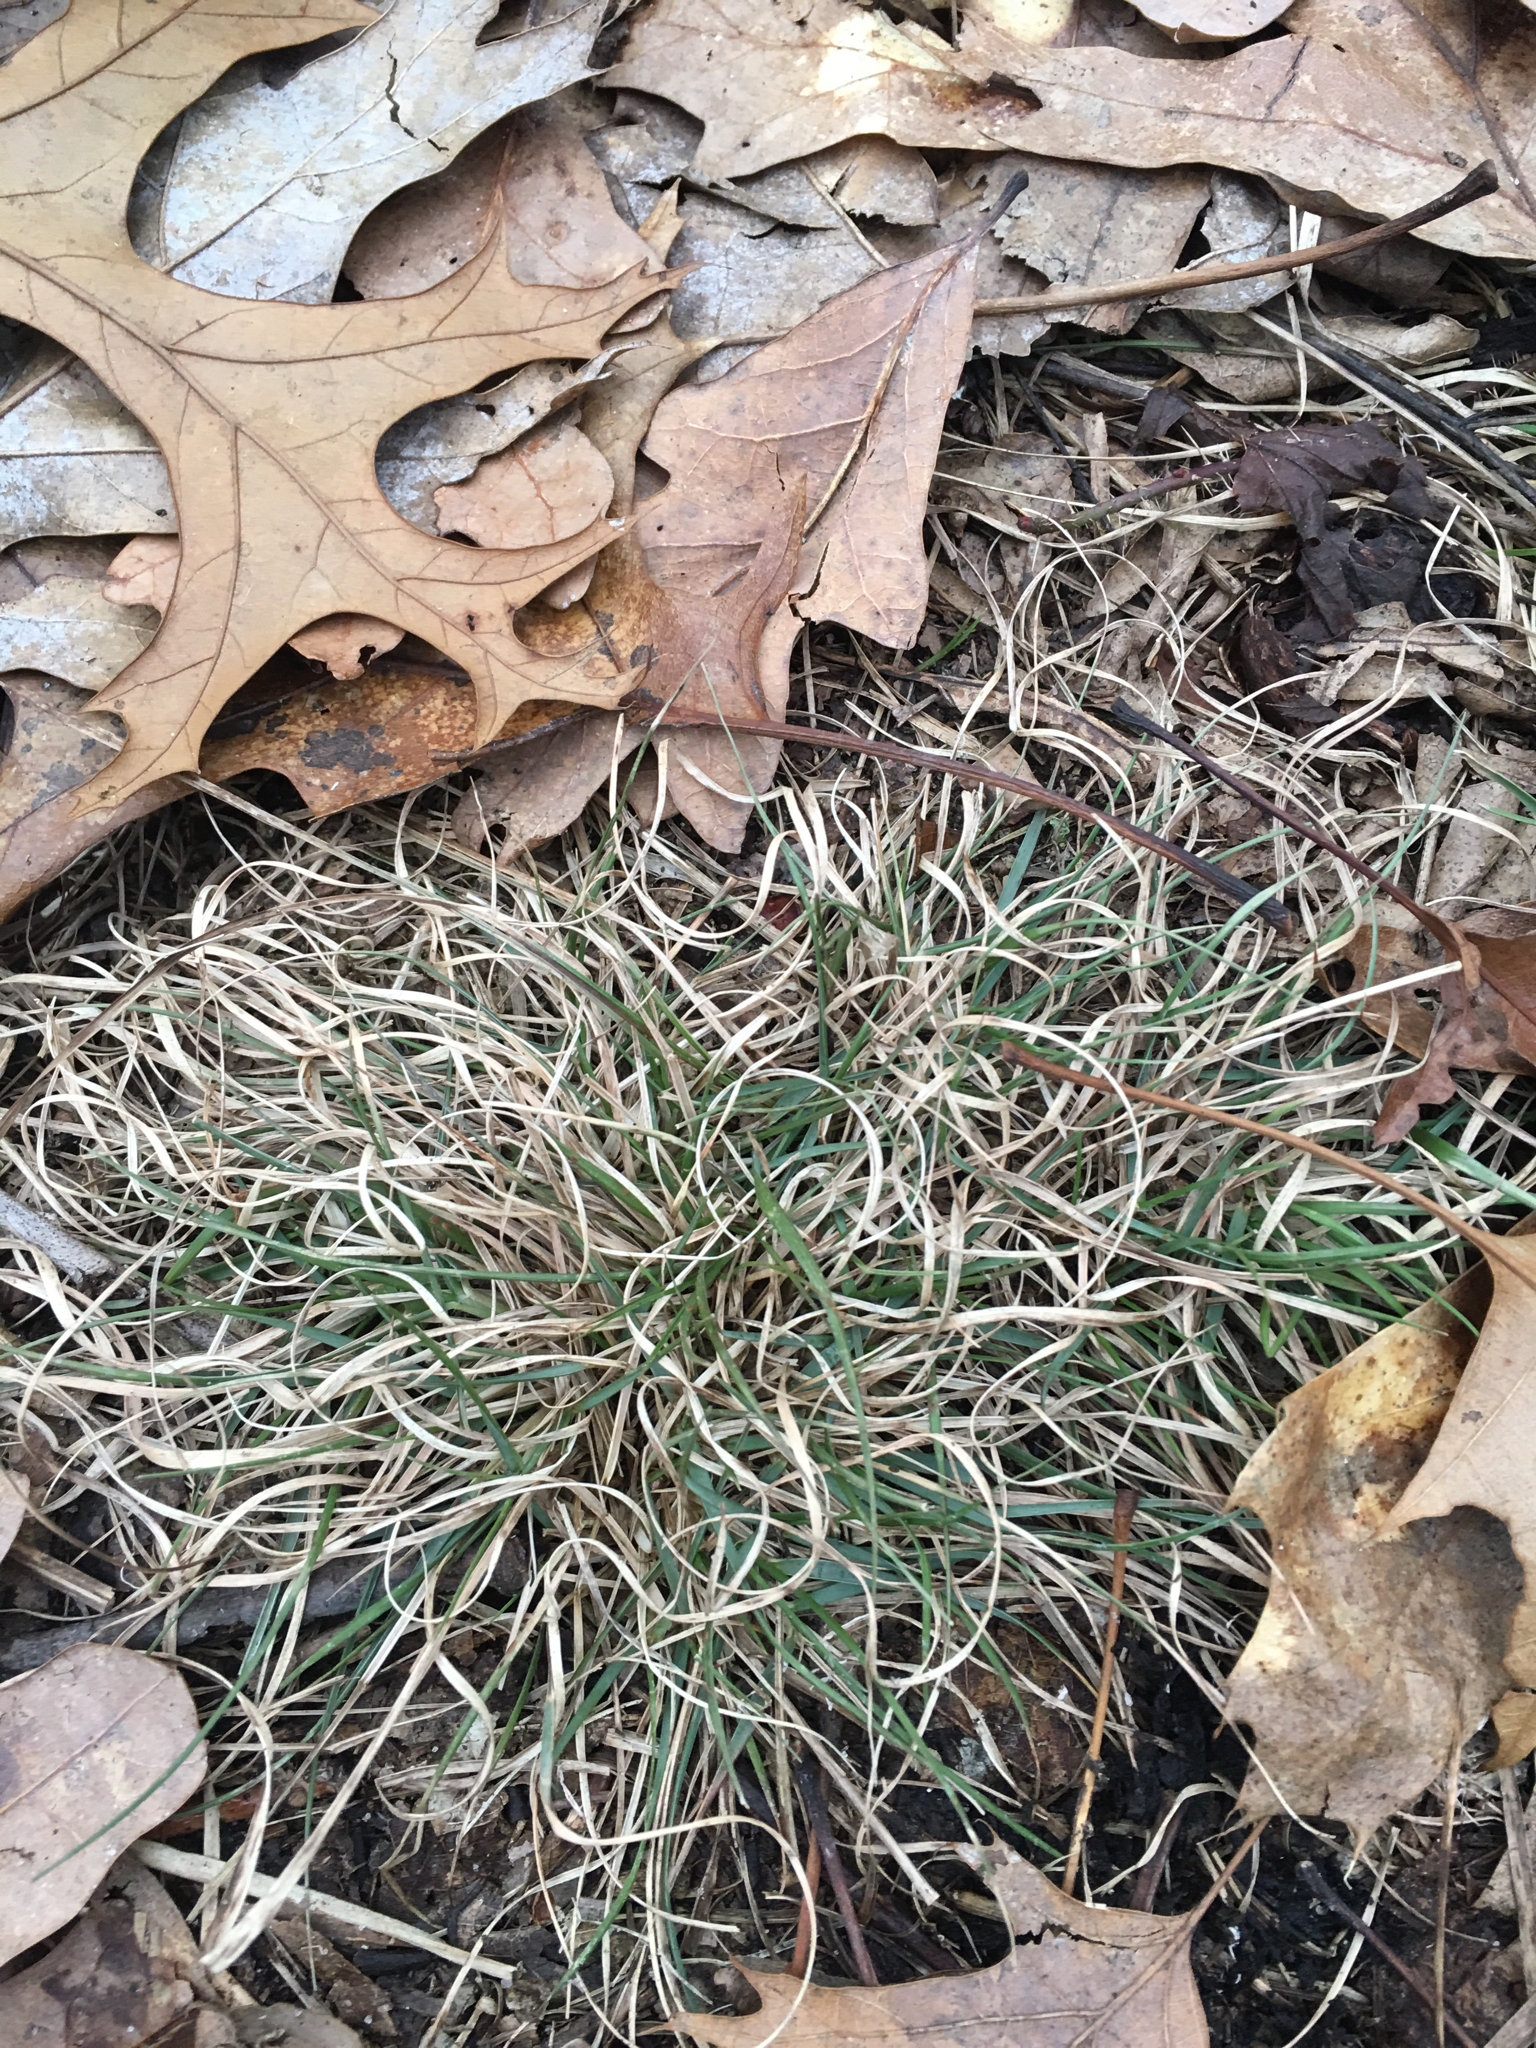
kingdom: Plantae
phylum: Tracheophyta
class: Liliopsida
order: Poales
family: Poaceae
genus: Danthonia
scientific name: Danthonia spicata
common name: Common wild oatgrass
